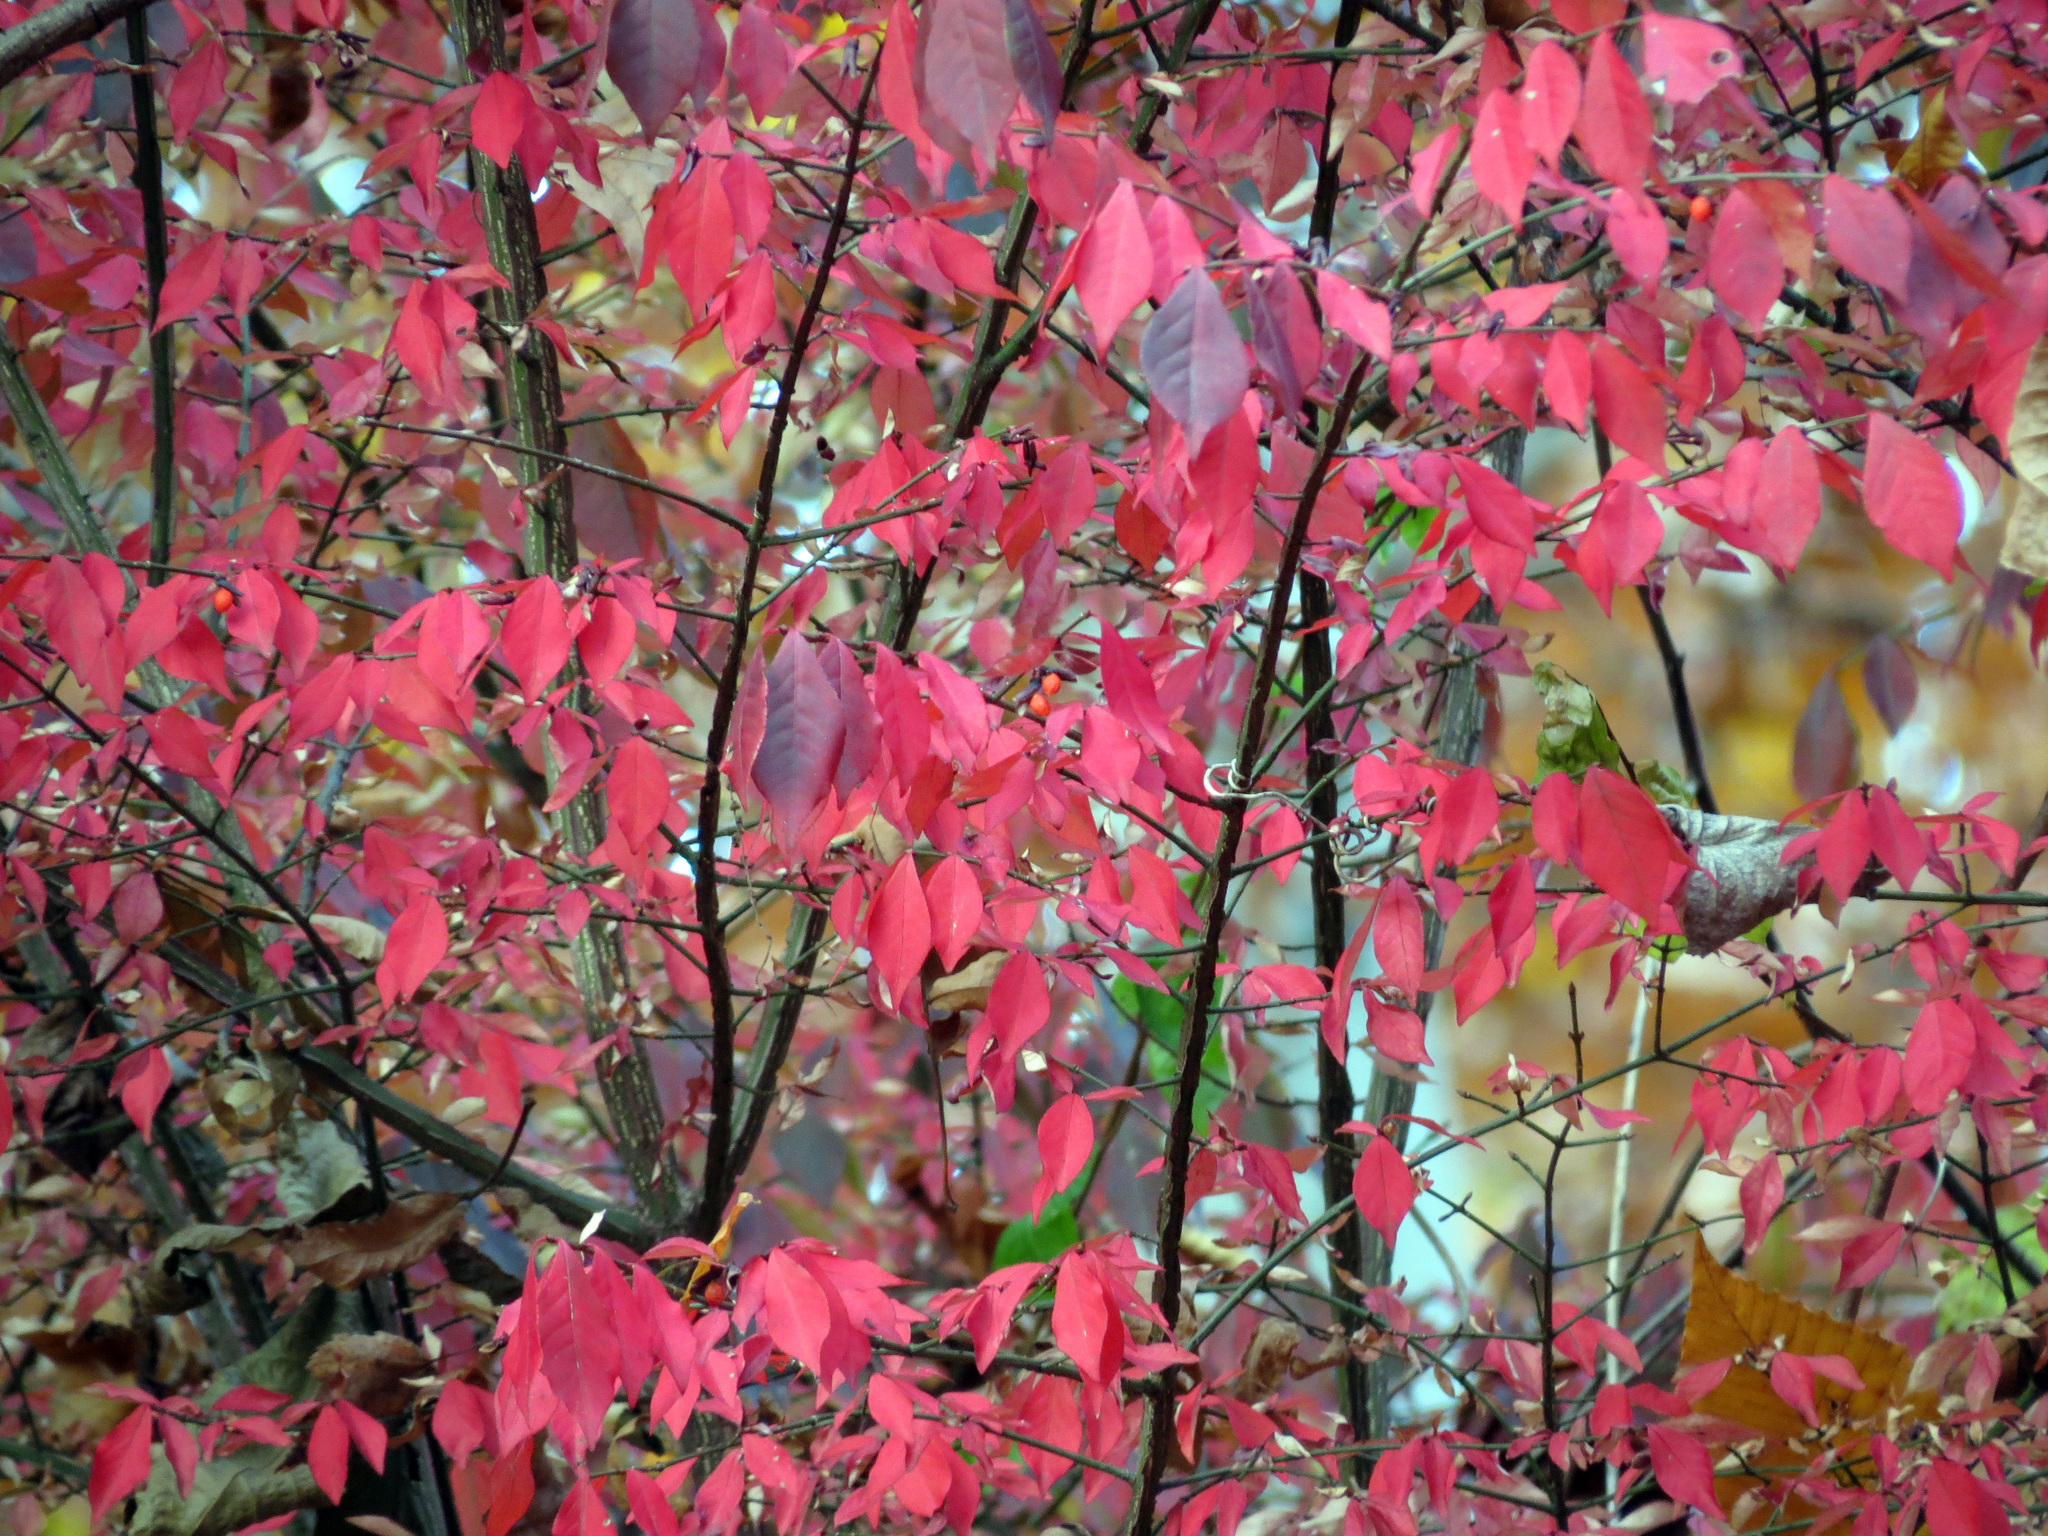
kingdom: Plantae
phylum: Tracheophyta
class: Magnoliopsida
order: Celastrales
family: Celastraceae
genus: Euonymus
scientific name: Euonymus alatus
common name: Winged euonymus
